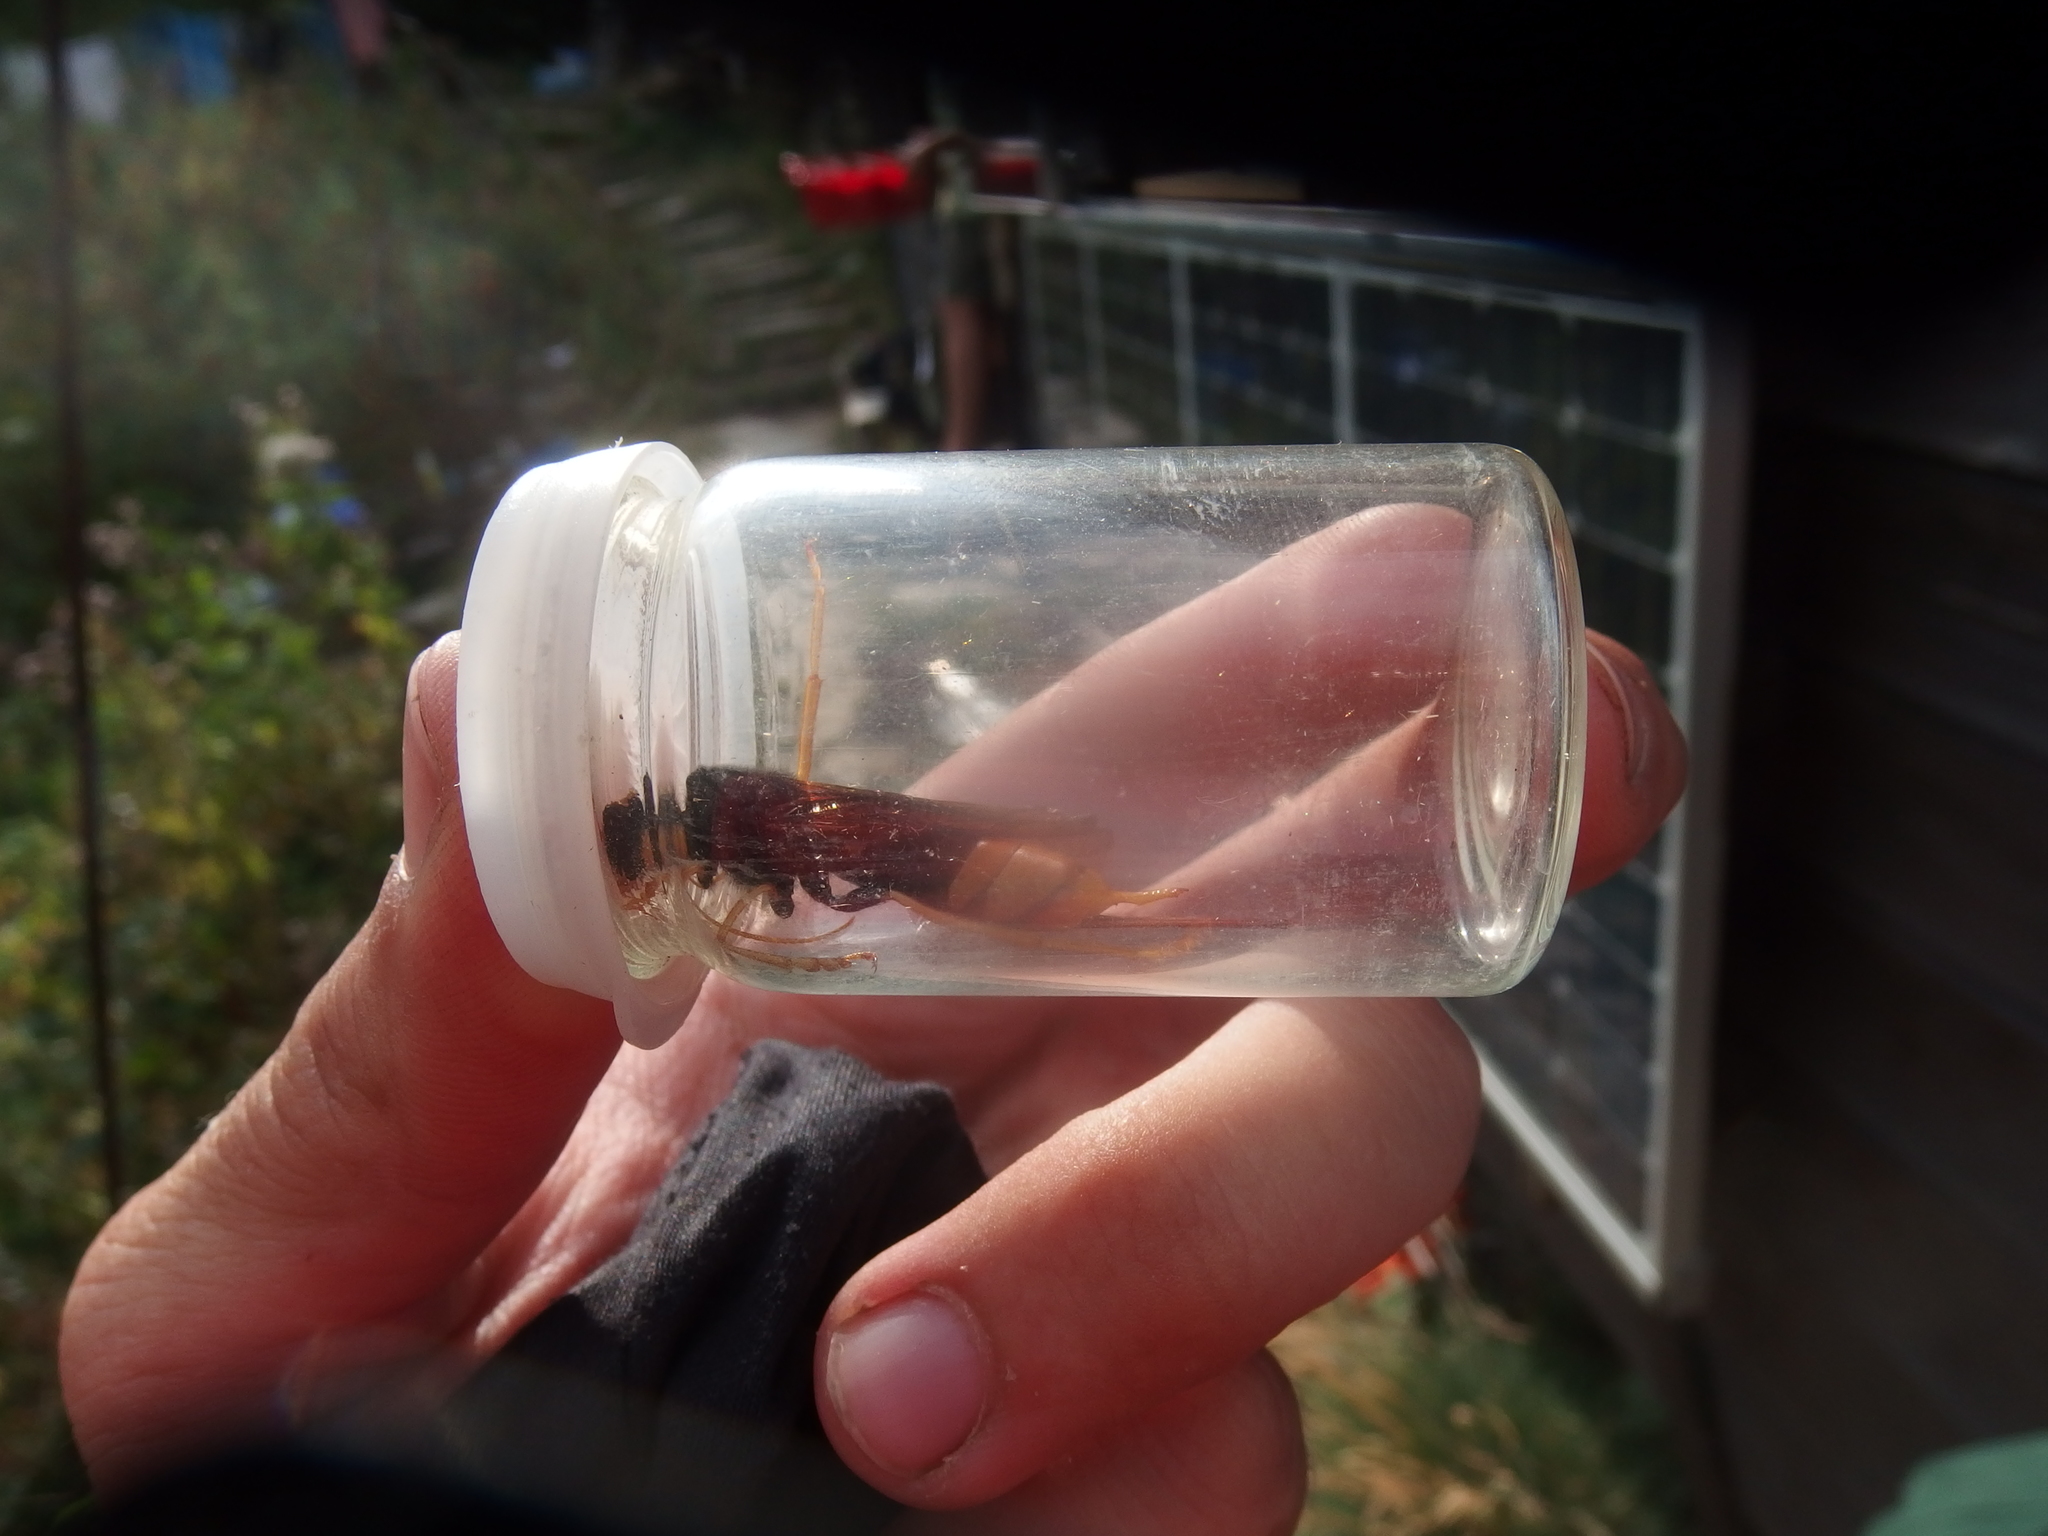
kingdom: Animalia
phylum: Arthropoda
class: Insecta
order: Hymenoptera
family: Siricidae
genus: Urocerus
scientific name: Urocerus gigas
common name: Giant woodwasp
